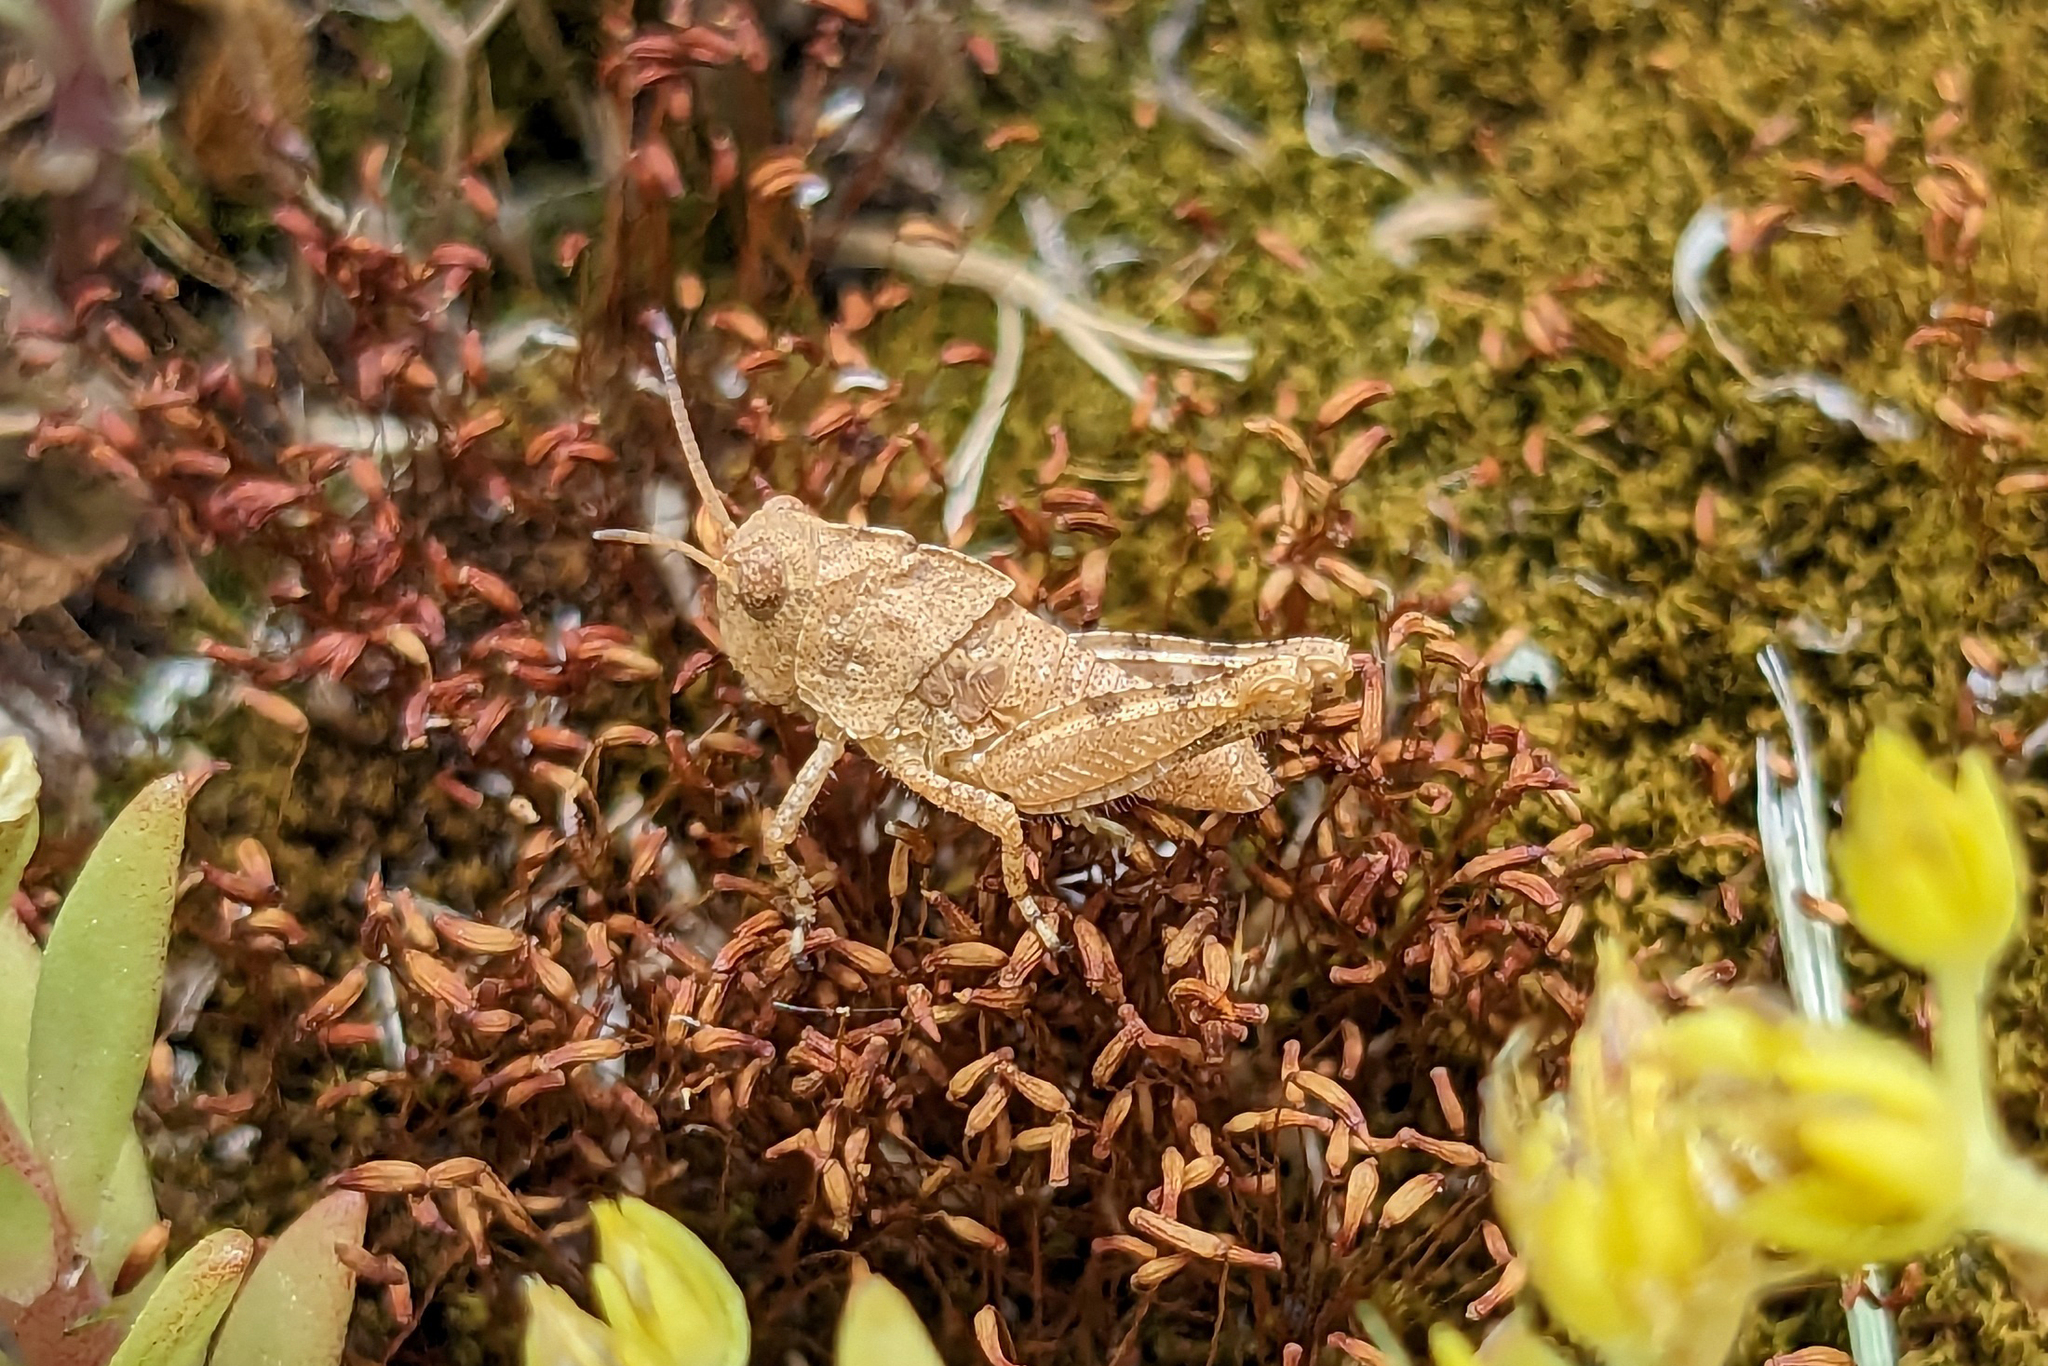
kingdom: Animalia
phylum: Arthropoda
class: Insecta
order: Orthoptera
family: Acrididae
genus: Dissosteira
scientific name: Dissosteira carolina
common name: Carolina grasshopper
